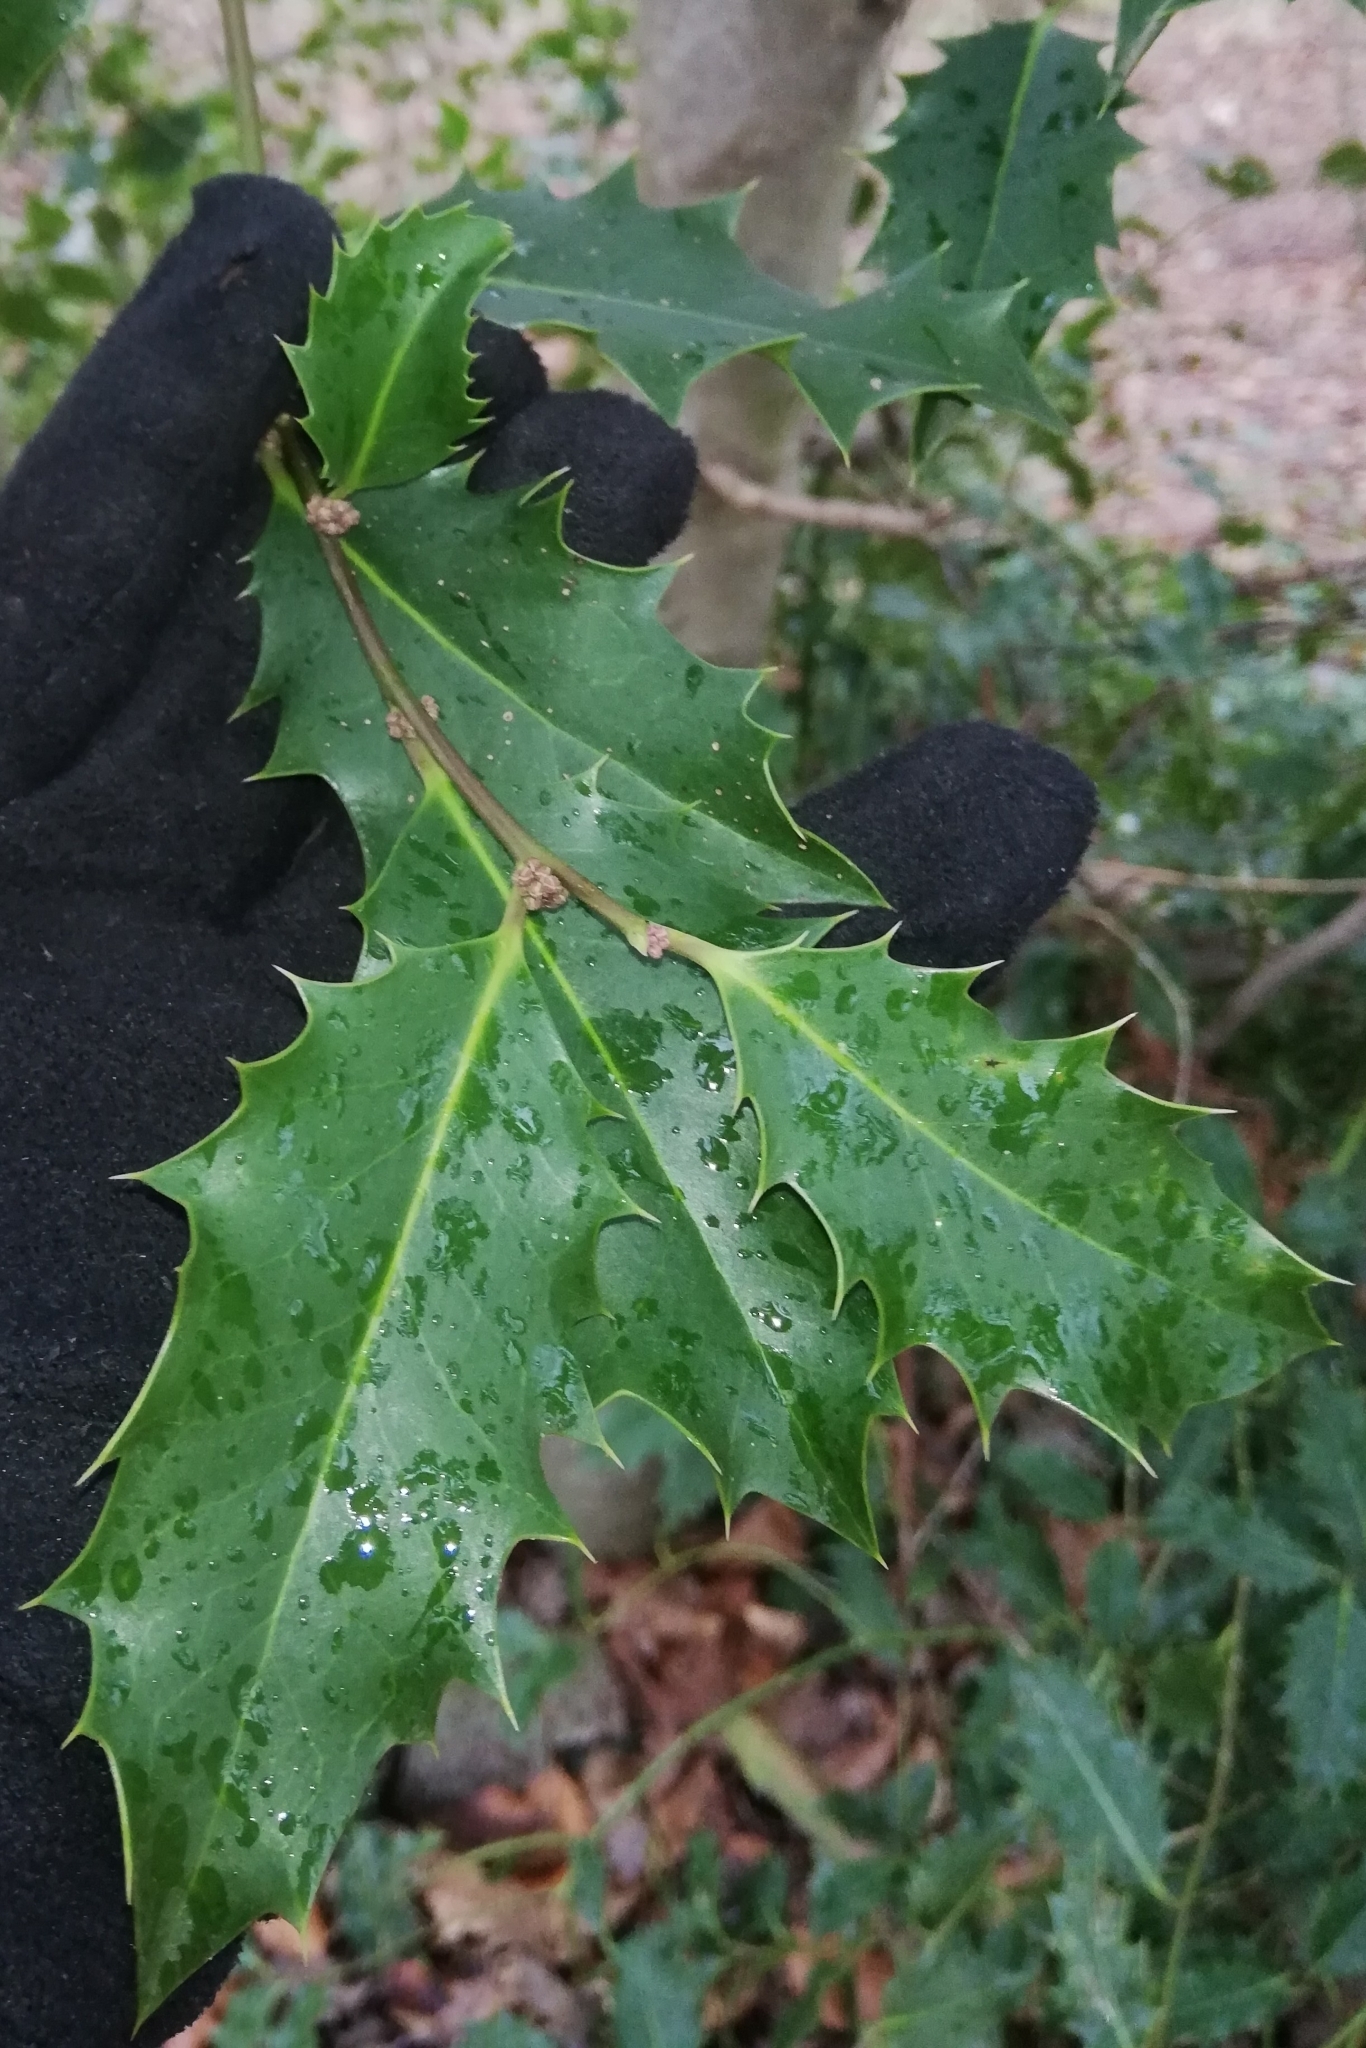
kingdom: Plantae
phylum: Tracheophyta
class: Magnoliopsida
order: Aquifoliales
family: Aquifoliaceae
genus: Ilex
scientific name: Ilex aquifolium
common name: English holly
